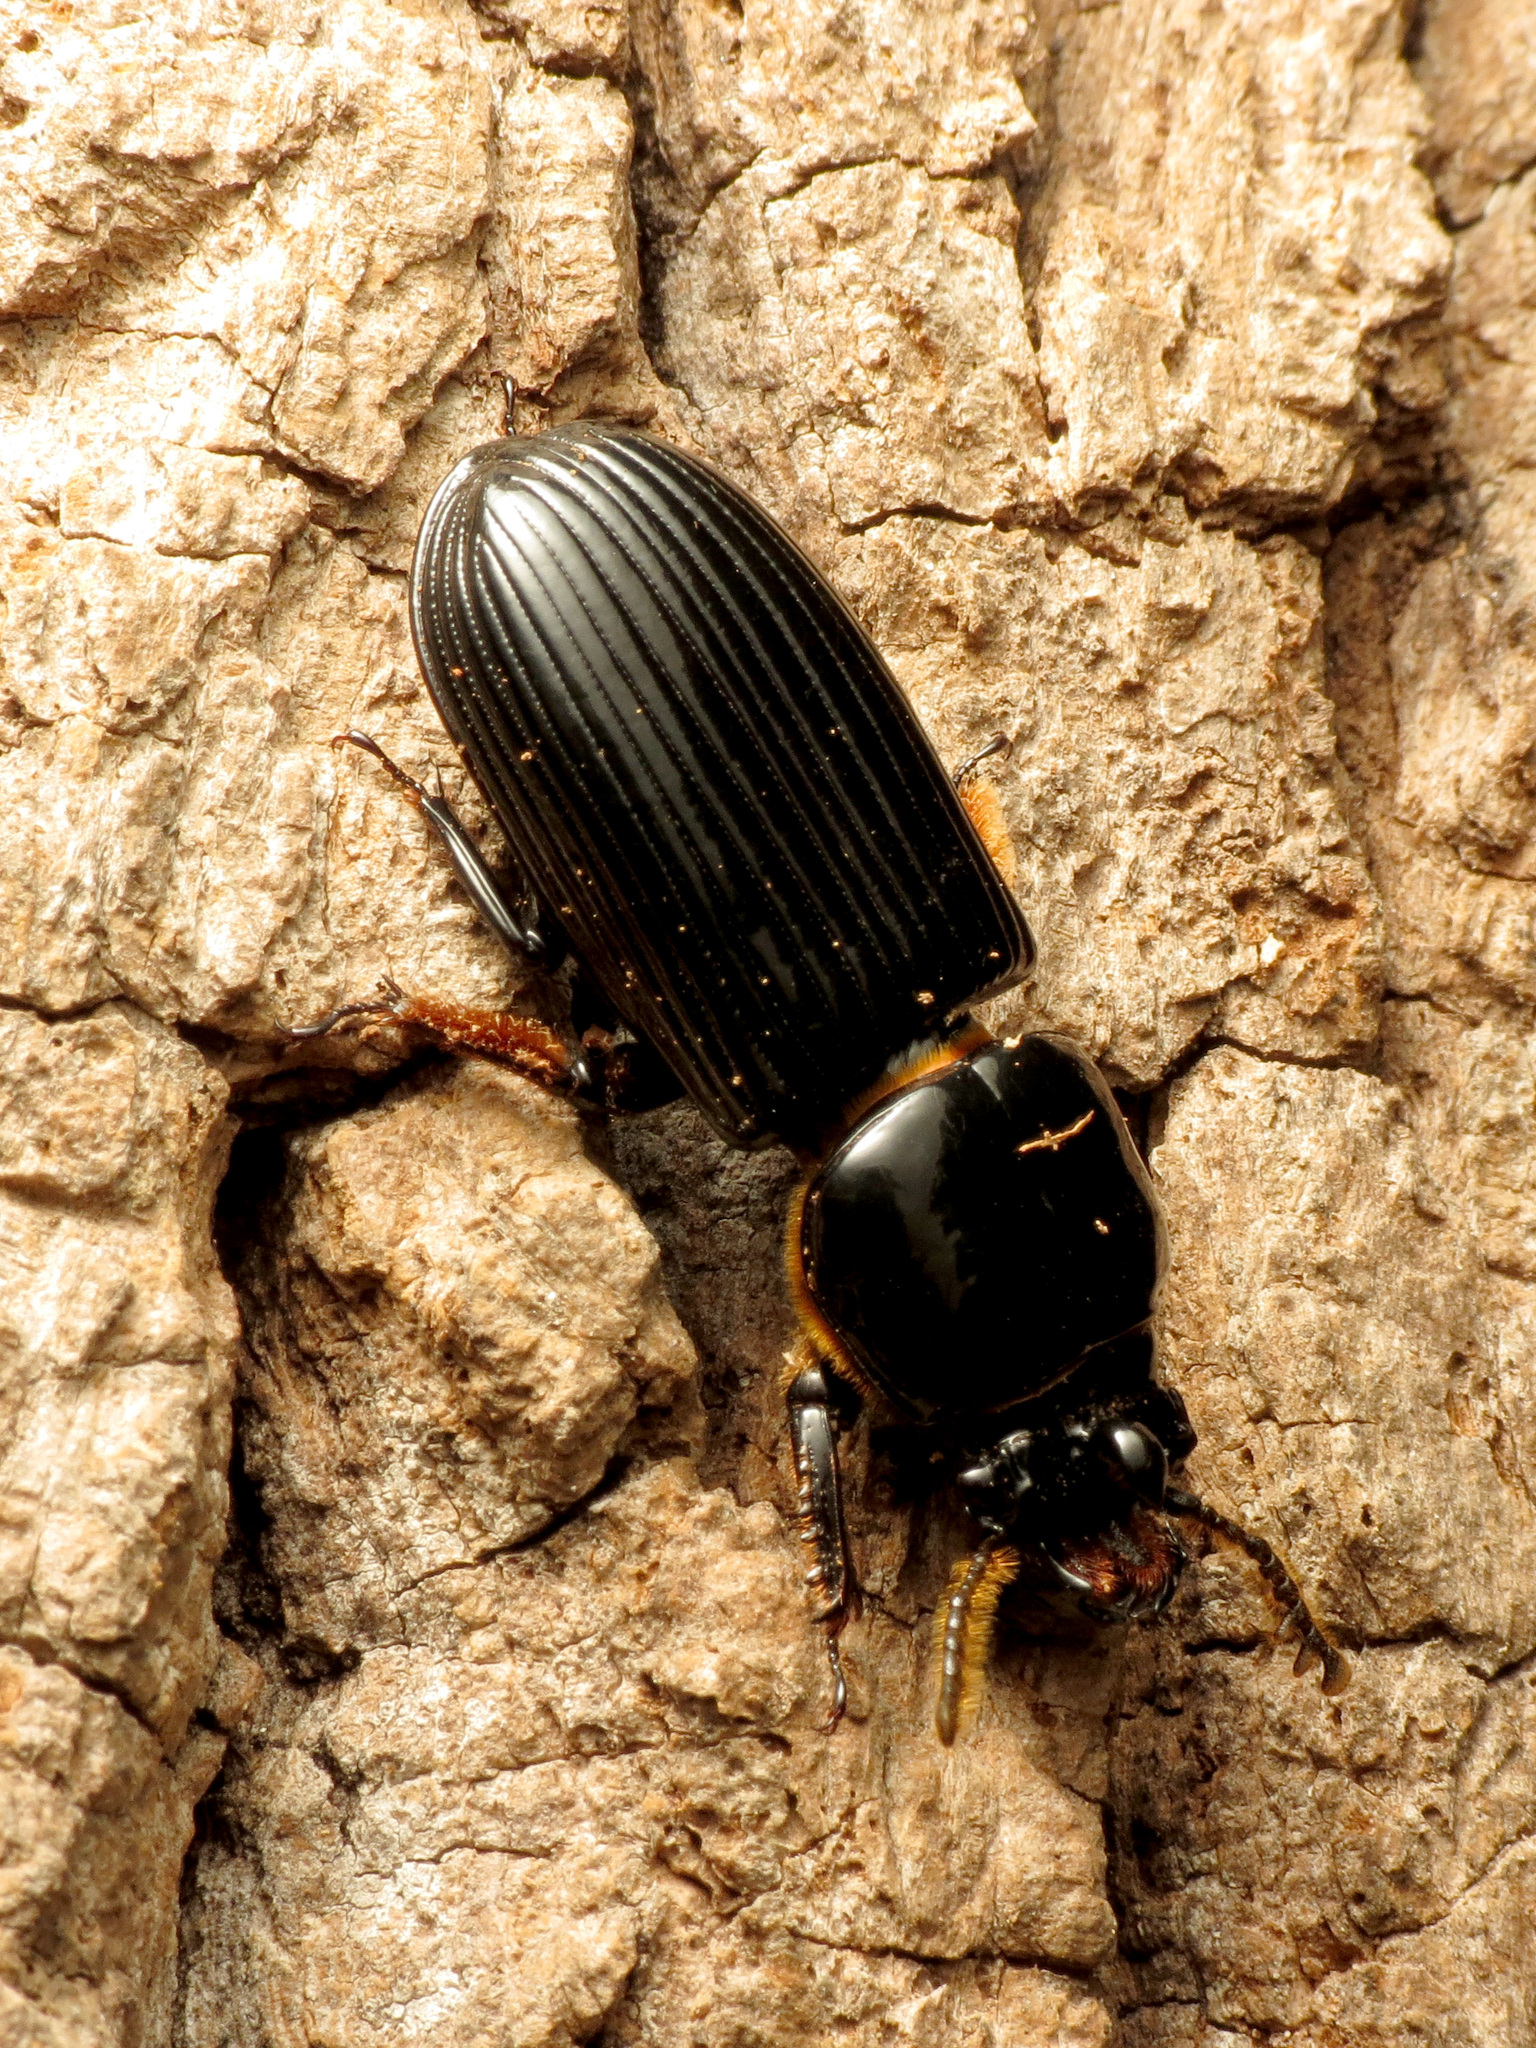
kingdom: Animalia
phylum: Arthropoda
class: Insecta
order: Coleoptera
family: Passalidae
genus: Odontotaenius
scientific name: Odontotaenius disjunctus
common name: Patent leather beetle
